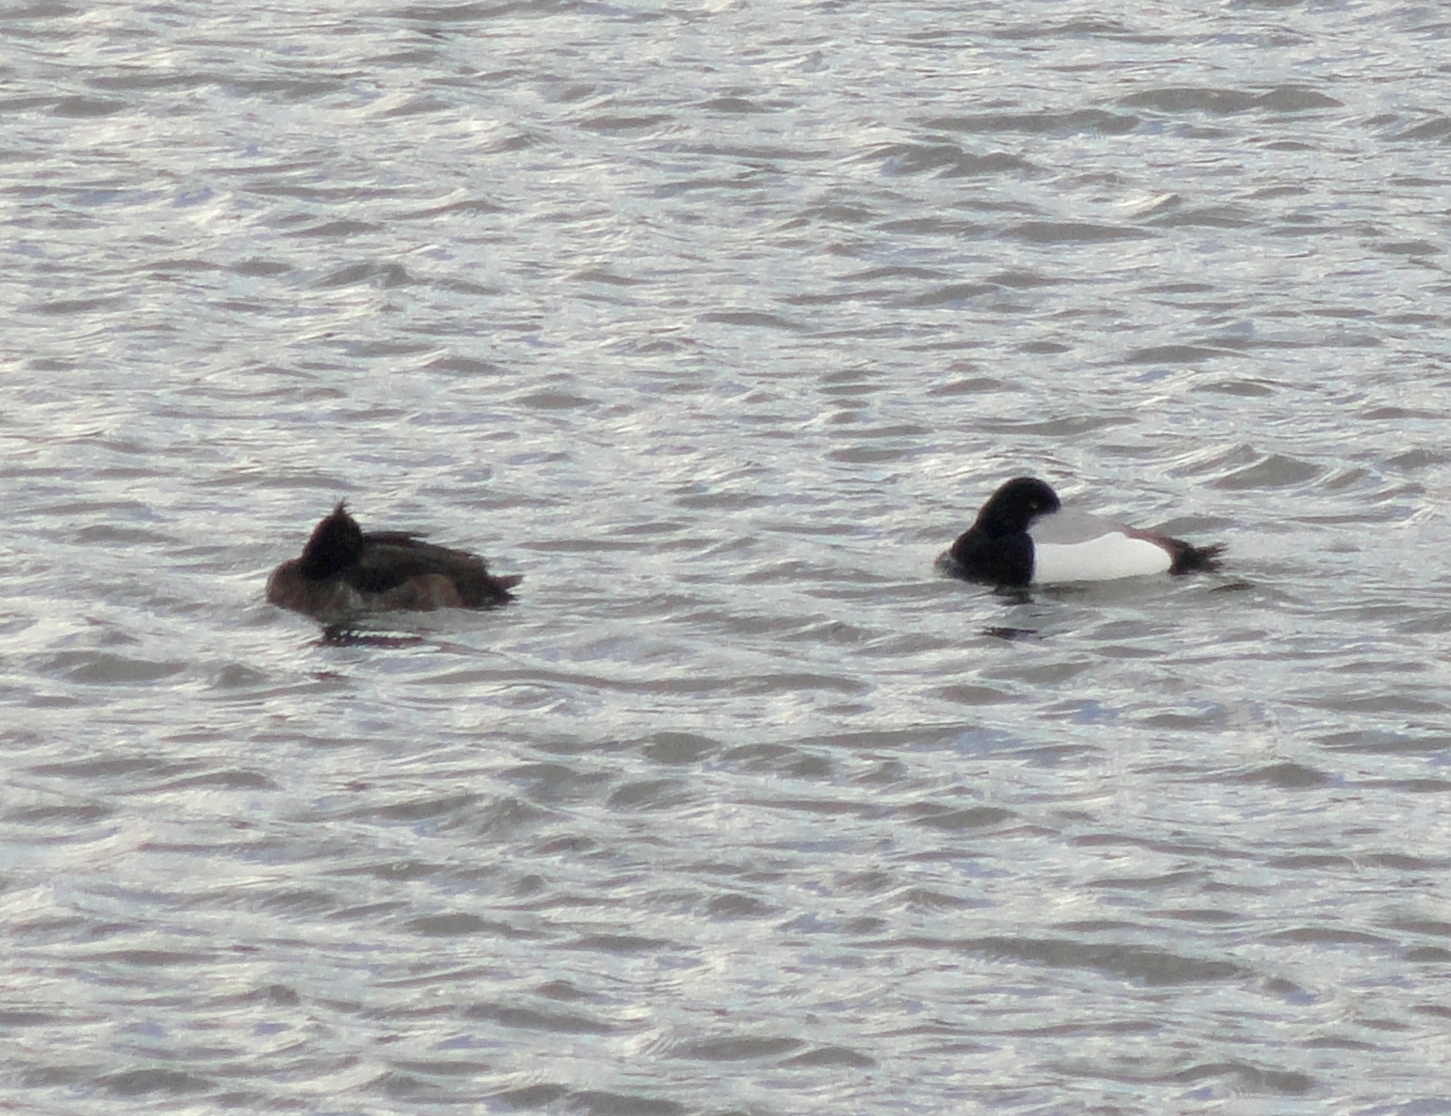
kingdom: Animalia
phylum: Chordata
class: Aves
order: Anseriformes
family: Anatidae
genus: Aythya
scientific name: Aythya marila
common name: Greater scaup
